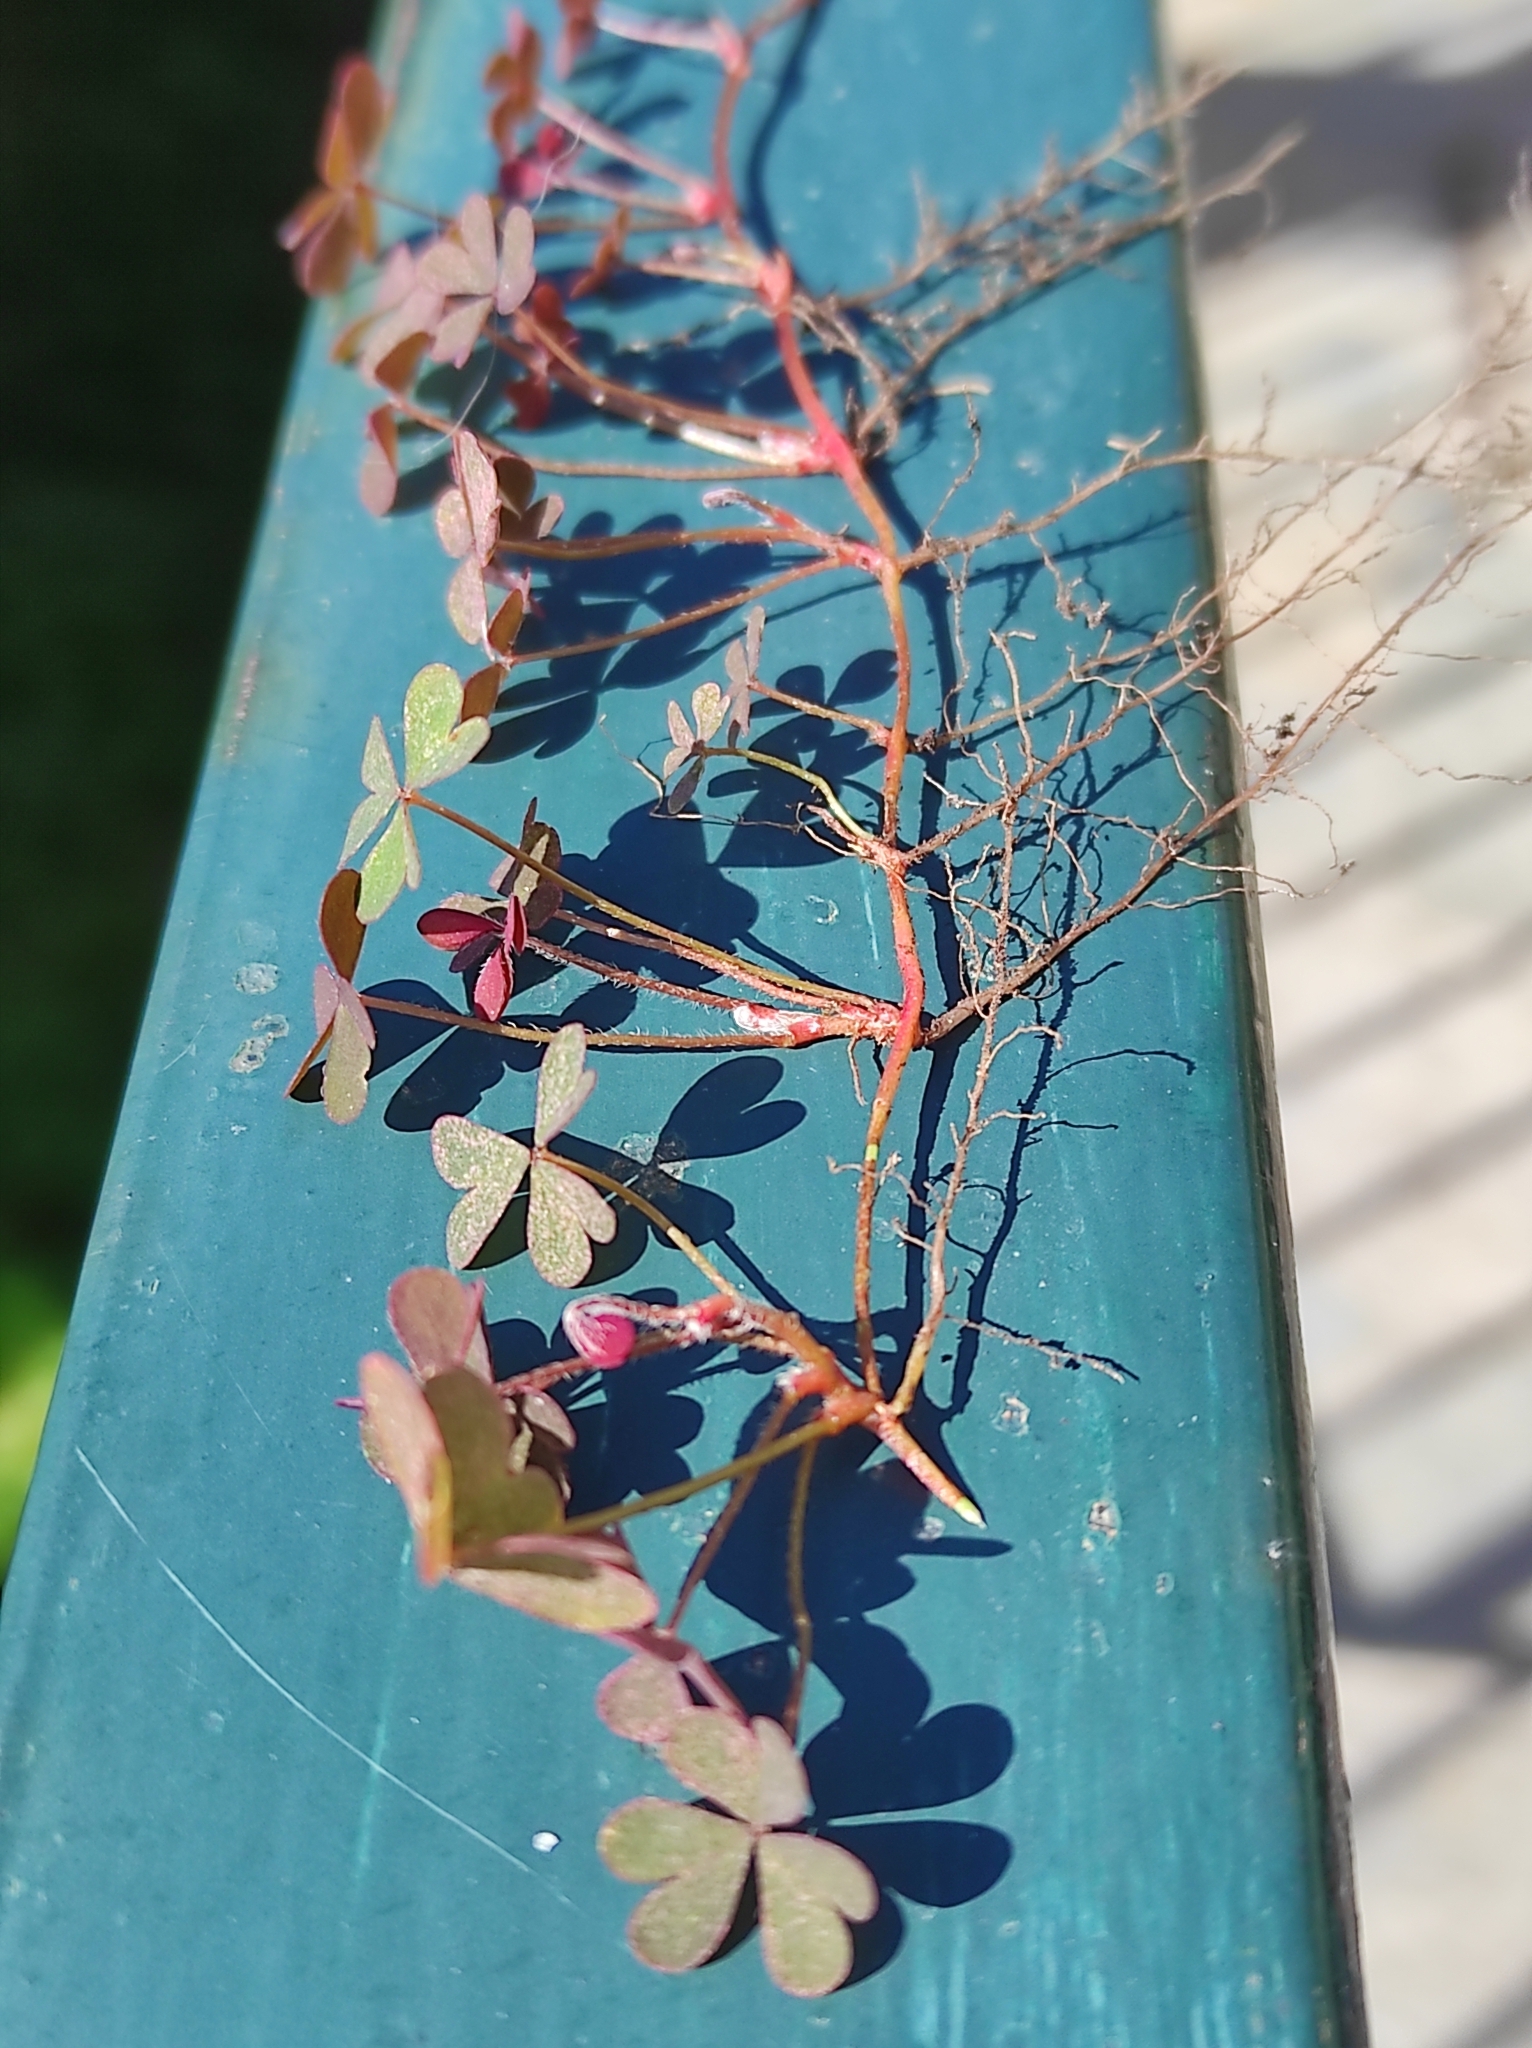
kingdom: Plantae
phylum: Tracheophyta
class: Magnoliopsida
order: Oxalidales
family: Oxalidaceae
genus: Oxalis
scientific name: Oxalis corniculata
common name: Procumbent yellow-sorrel
